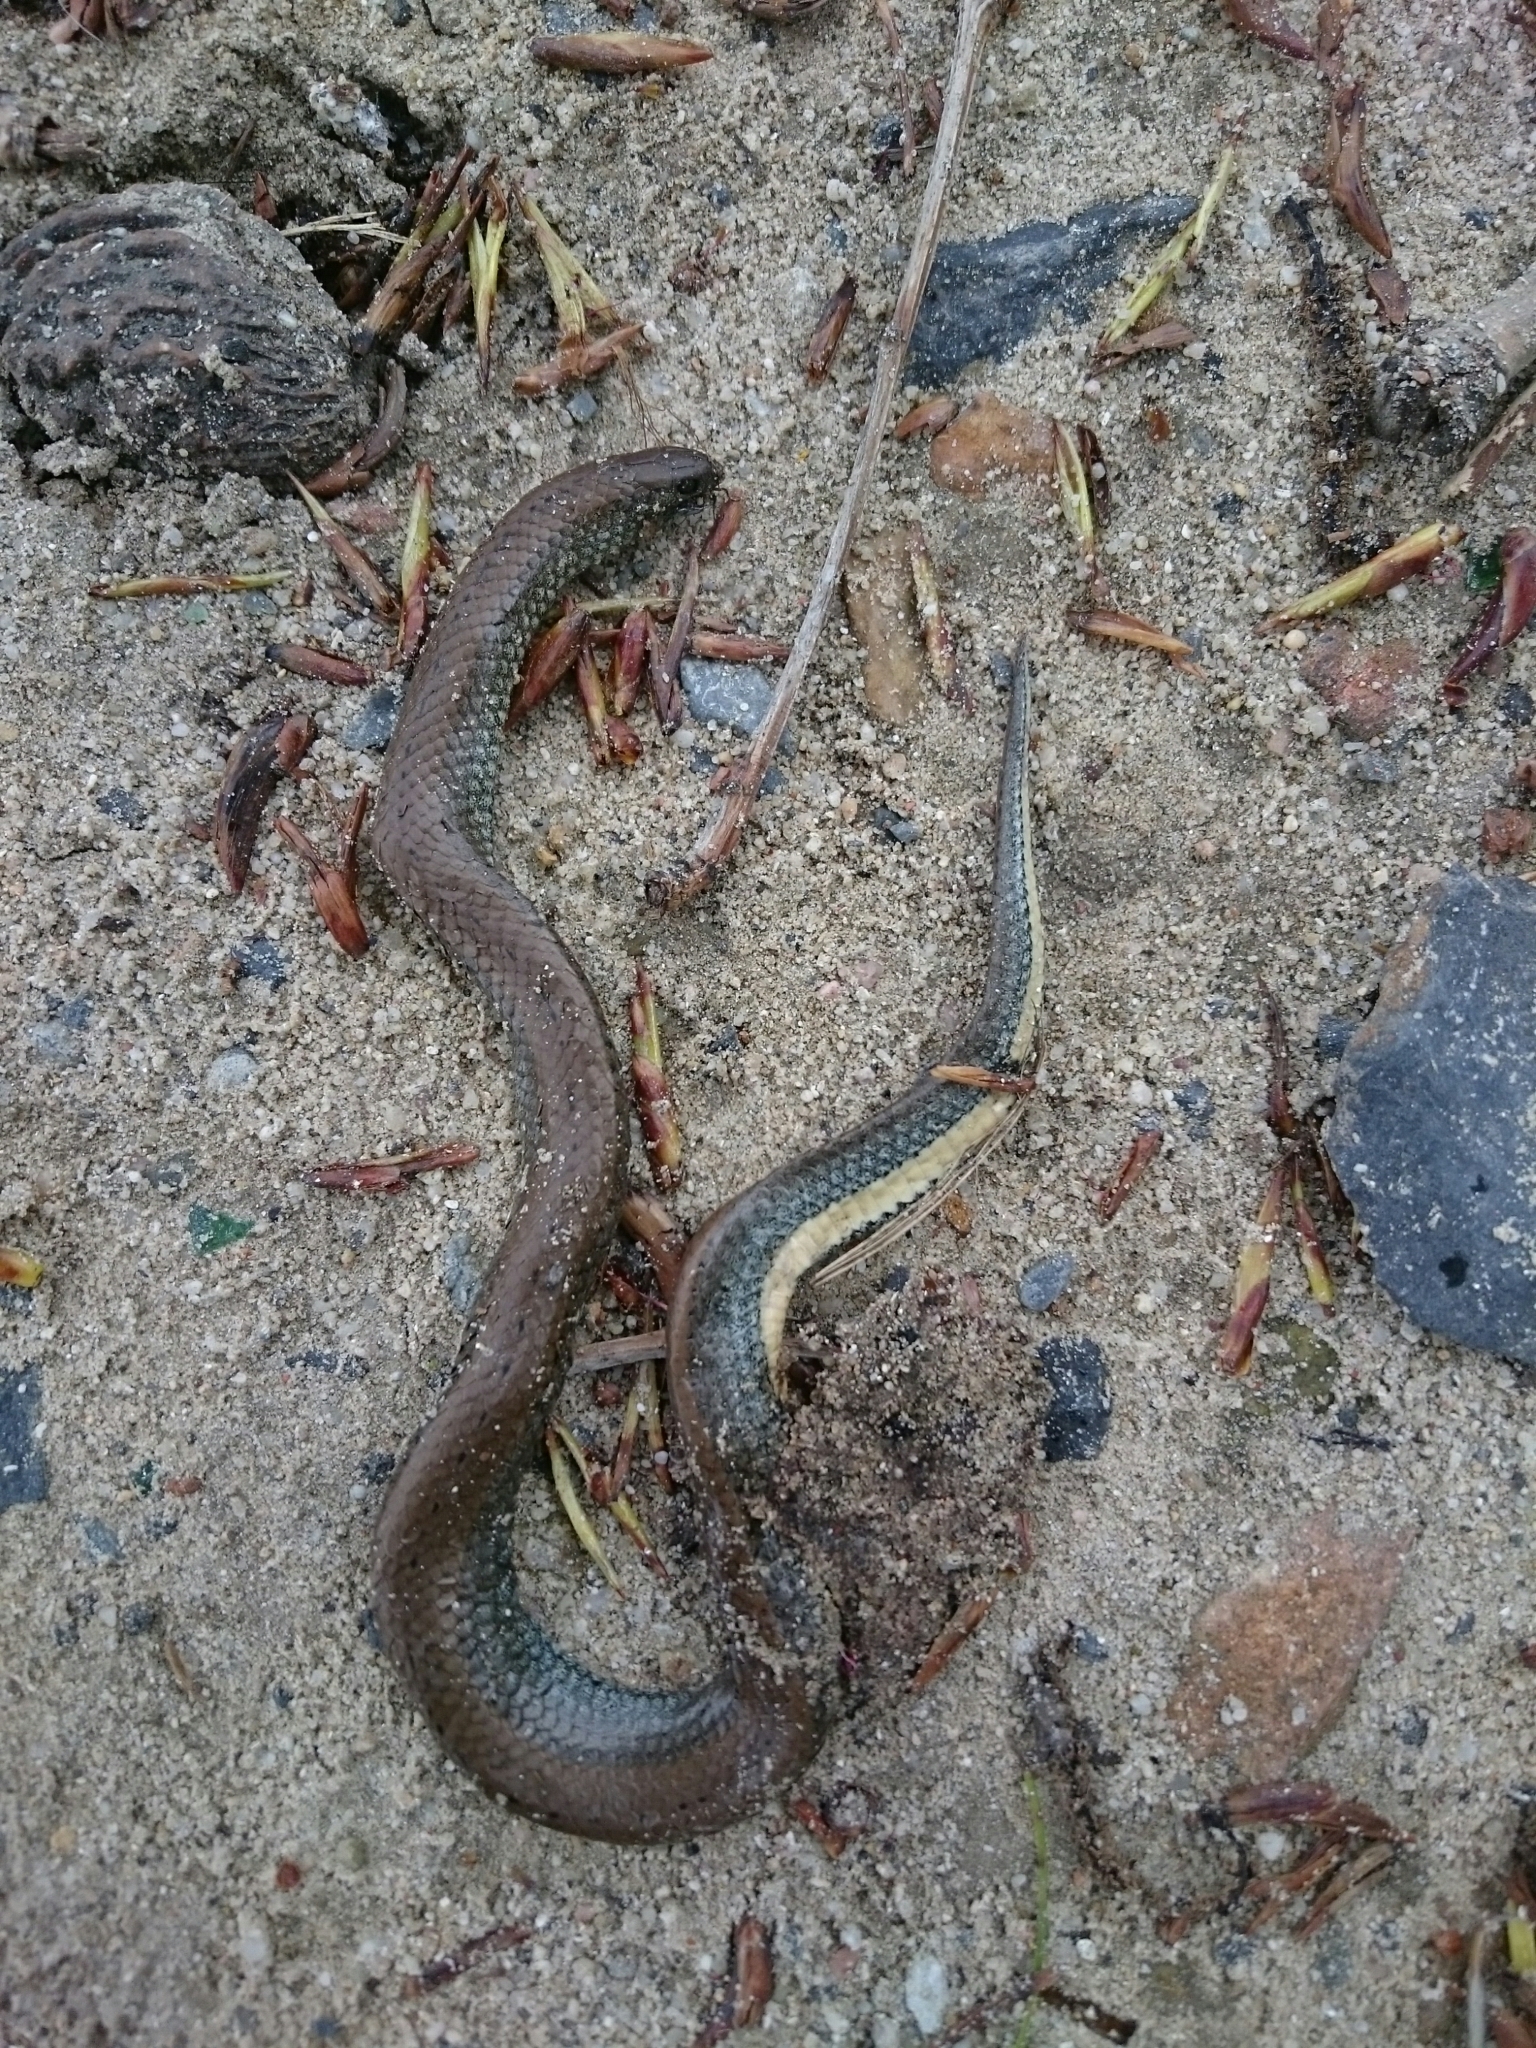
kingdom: Animalia
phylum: Chordata
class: Squamata
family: Pseudoxyrhophiidae
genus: Duberria
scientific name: Duberria lutrix
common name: Common slug eater
